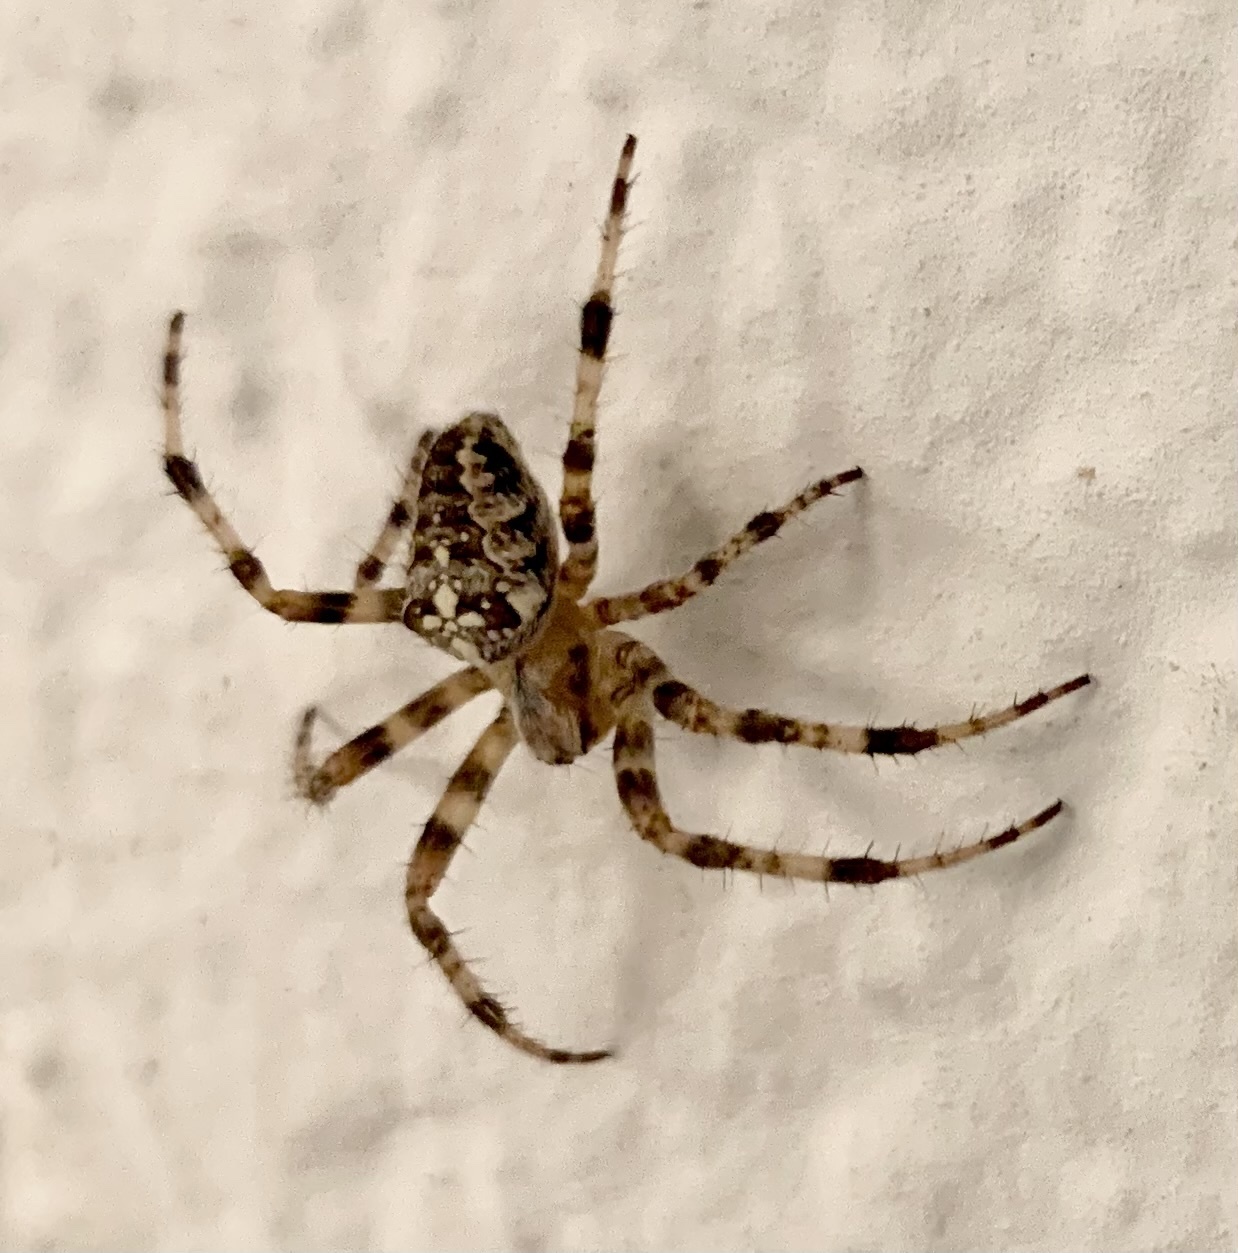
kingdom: Animalia
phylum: Arthropoda
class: Arachnida
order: Araneae
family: Araneidae
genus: Araneus
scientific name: Araneus diadematus
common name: Cross orbweaver
